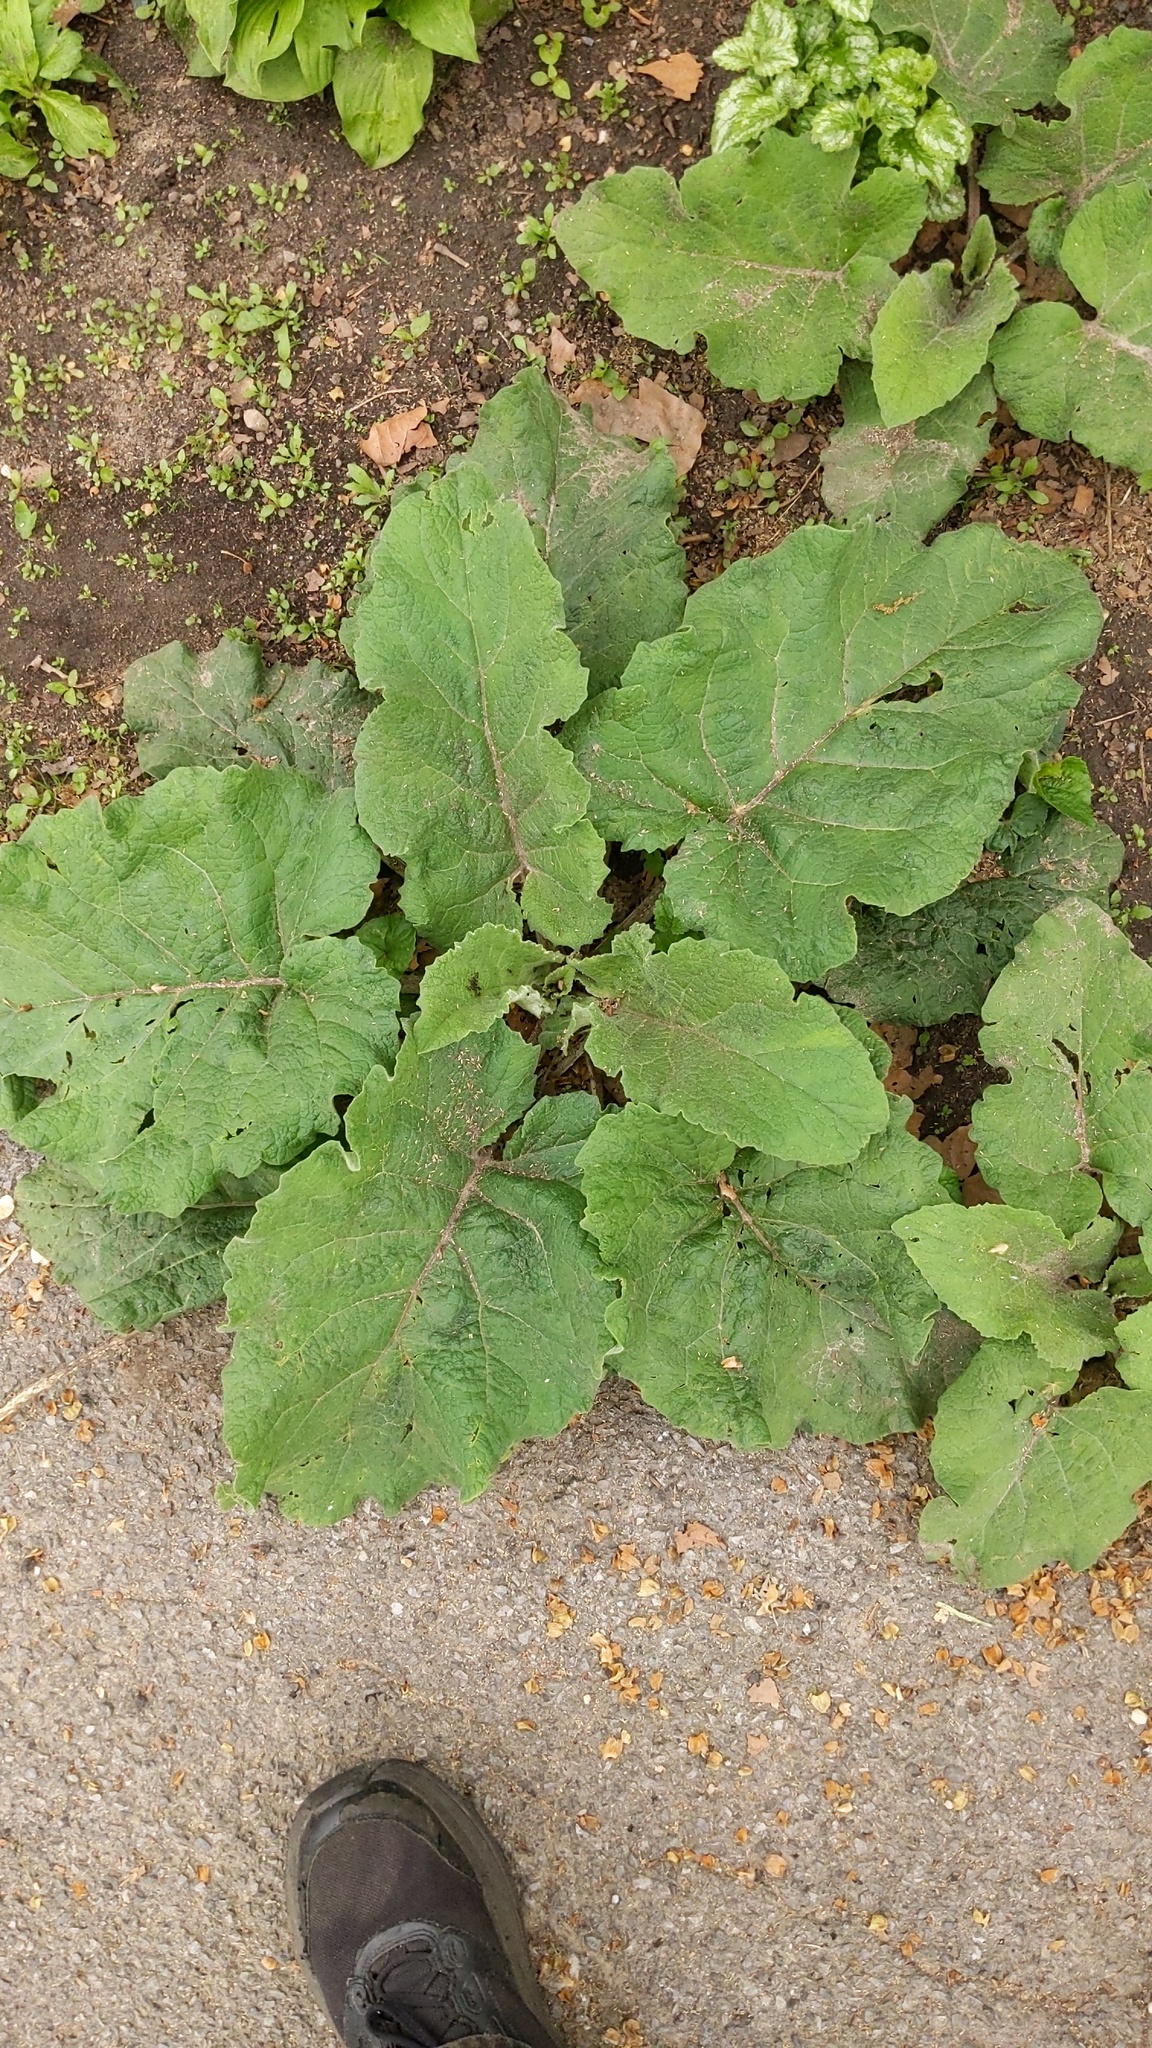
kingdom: Plantae
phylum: Tracheophyta
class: Magnoliopsida
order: Asterales
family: Asteraceae
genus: Arctium
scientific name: Arctium
